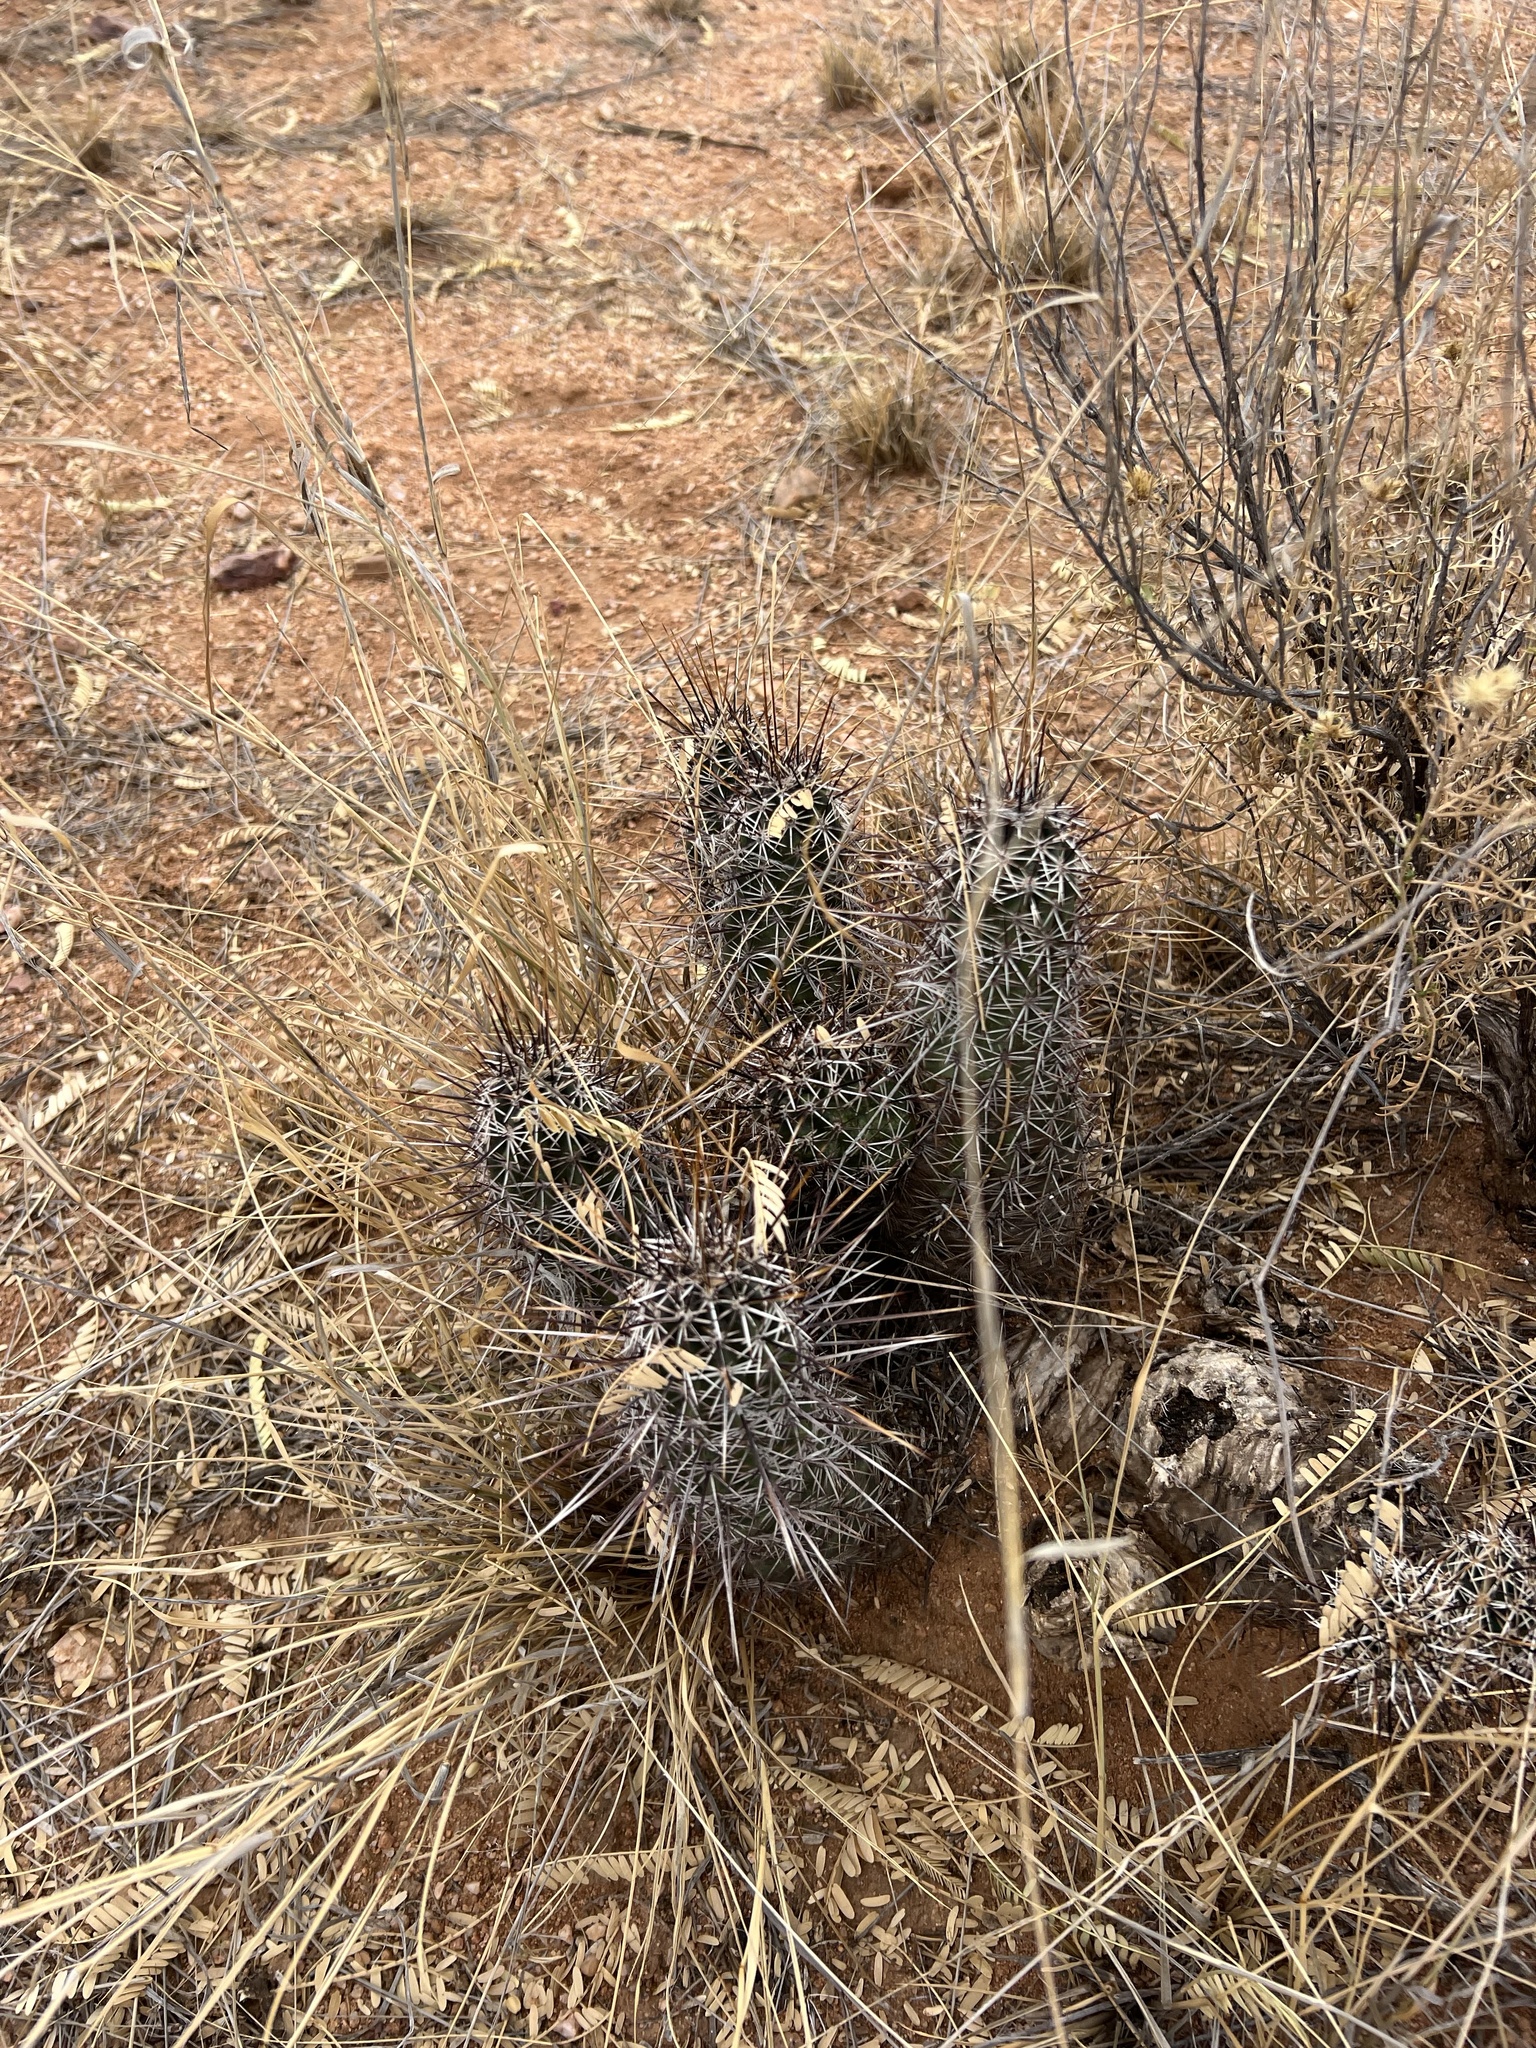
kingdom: Plantae
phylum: Tracheophyta
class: Magnoliopsida
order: Caryophyllales
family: Cactaceae
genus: Echinocereus
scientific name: Echinocereus fasciculatus
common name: Bundle hedgehog
